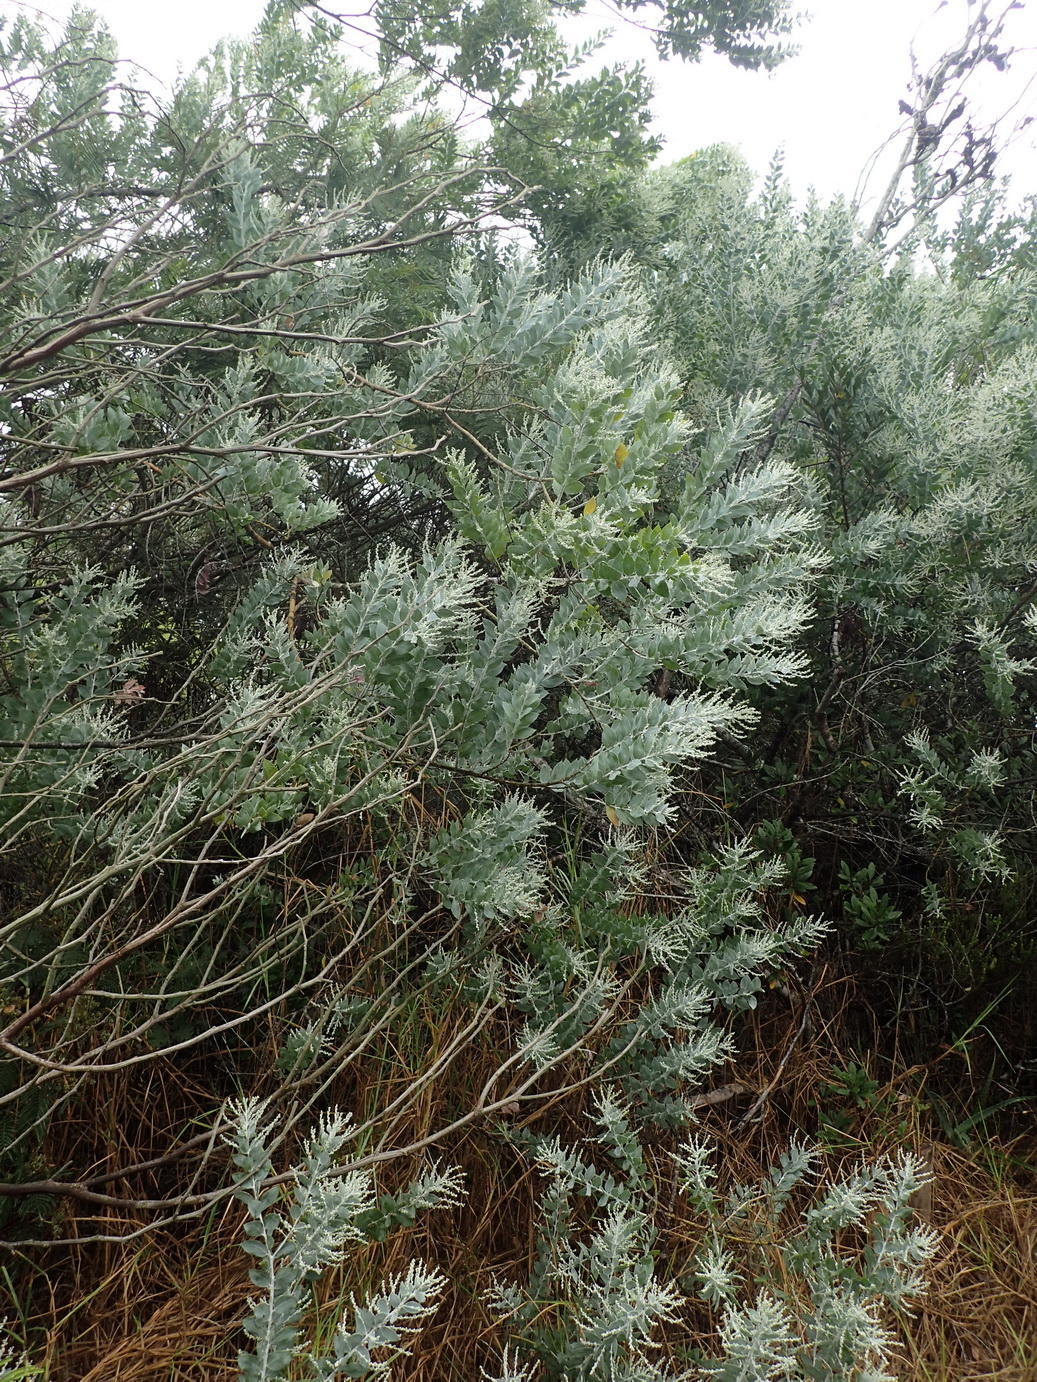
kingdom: Plantae
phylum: Tracheophyta
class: Magnoliopsida
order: Fabales
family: Fabaceae
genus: Acacia
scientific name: Acacia podalyriifolia
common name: Pearl wattle
